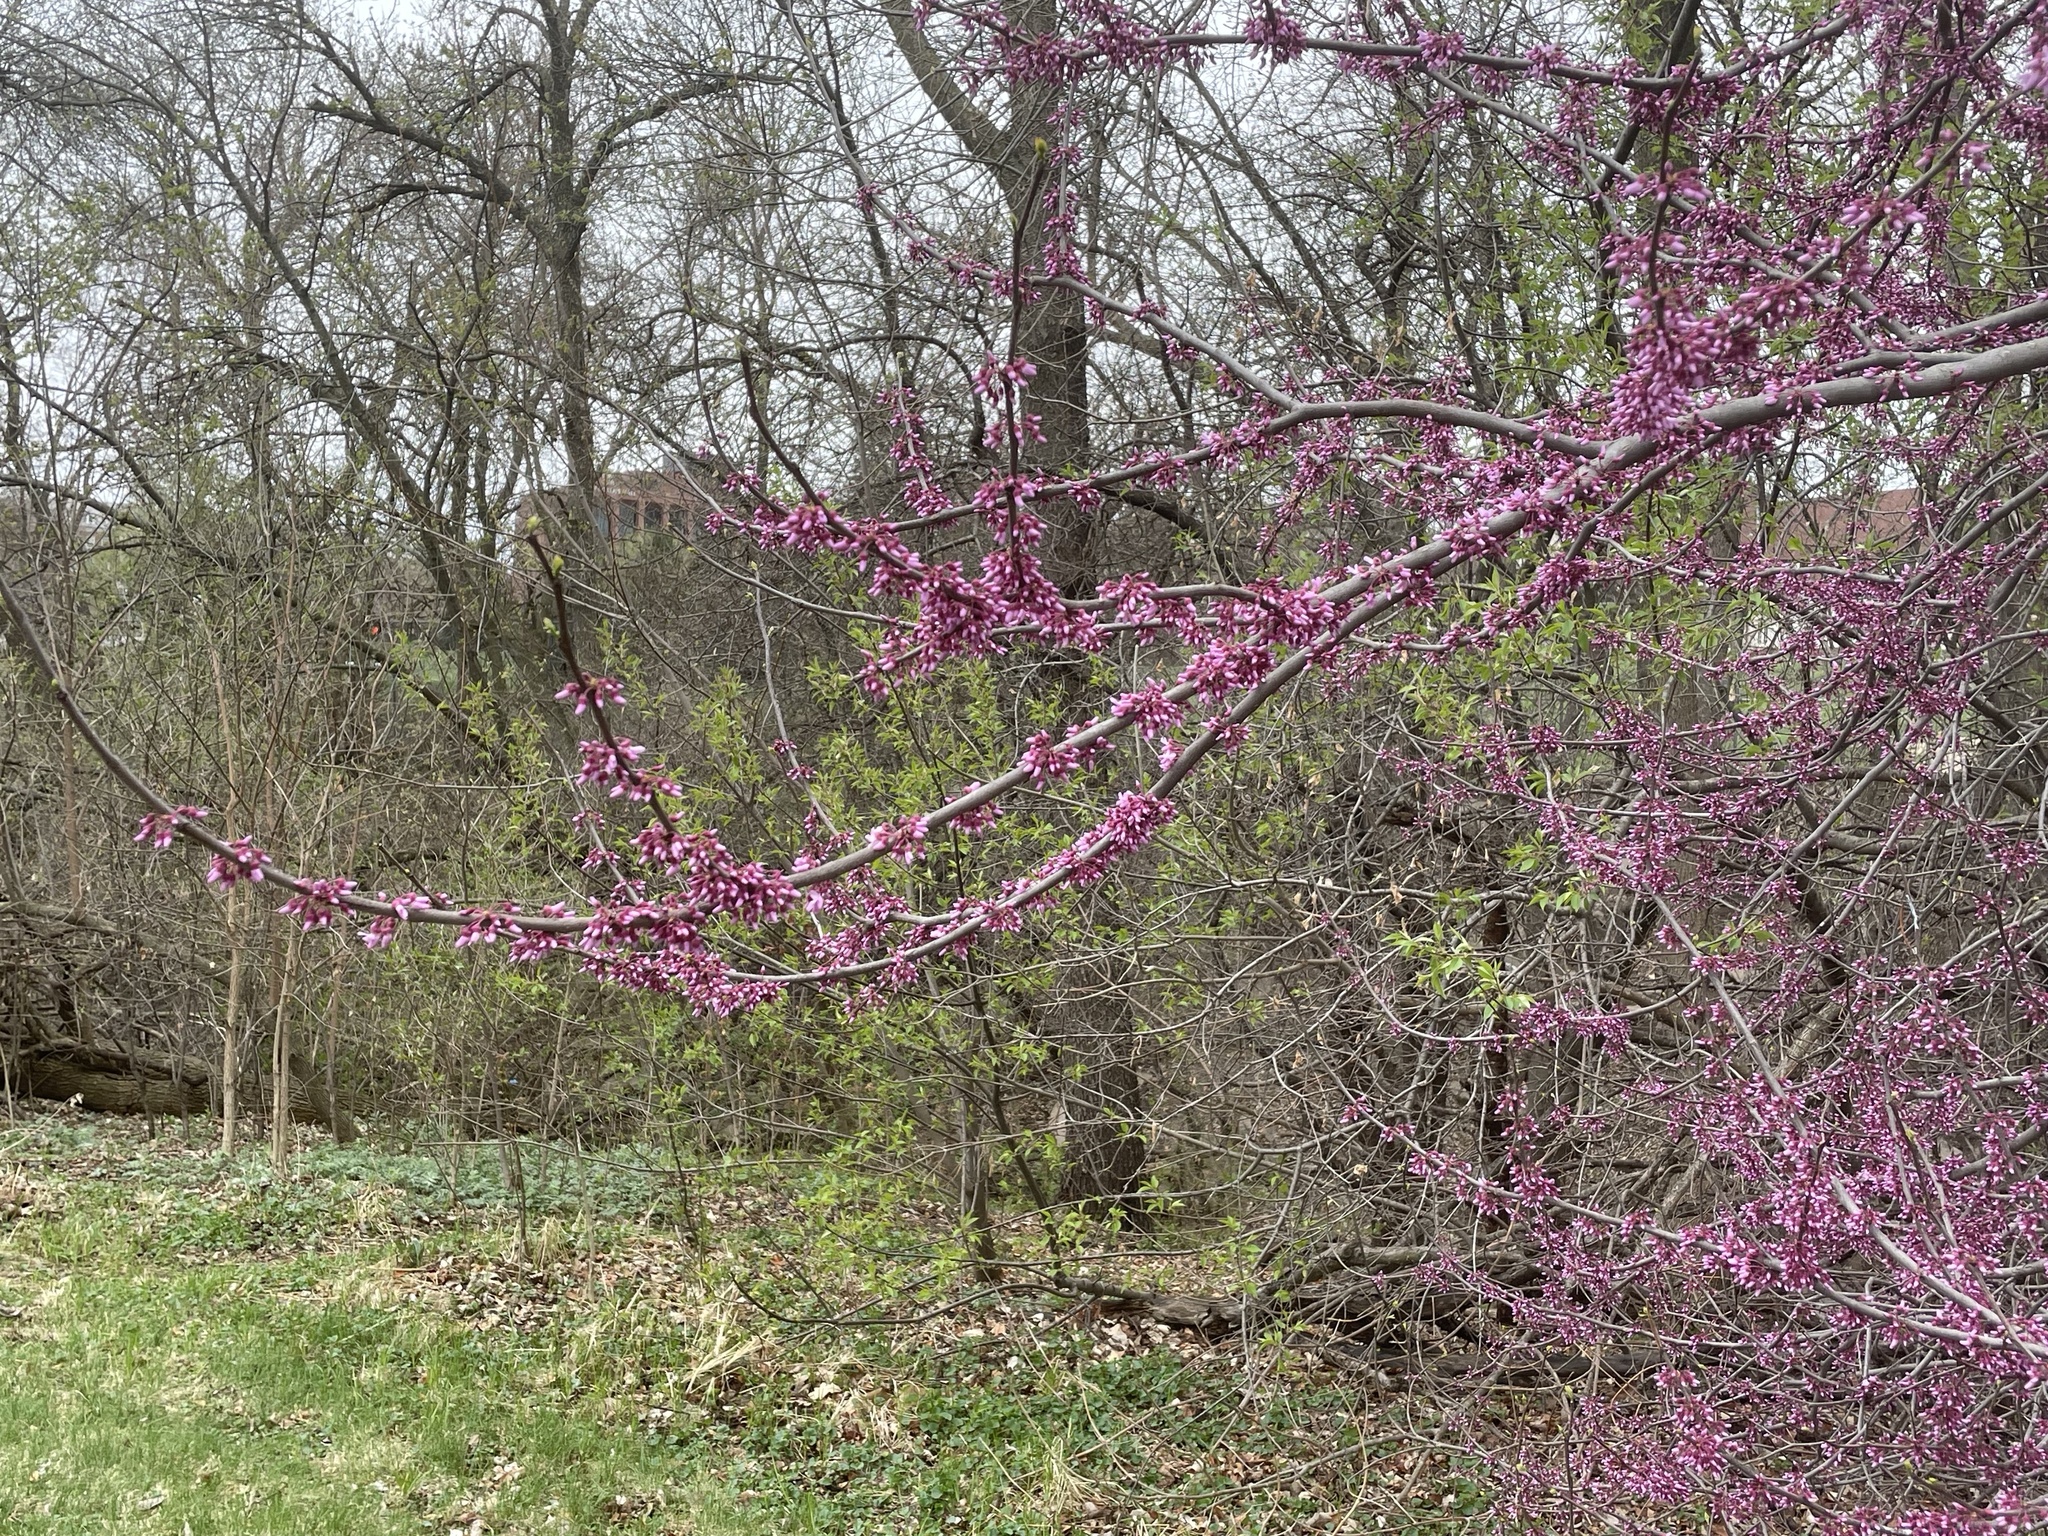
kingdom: Plantae
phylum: Tracheophyta
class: Magnoliopsida
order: Fabales
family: Fabaceae
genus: Cercis
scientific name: Cercis canadensis
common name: Eastern redbud
